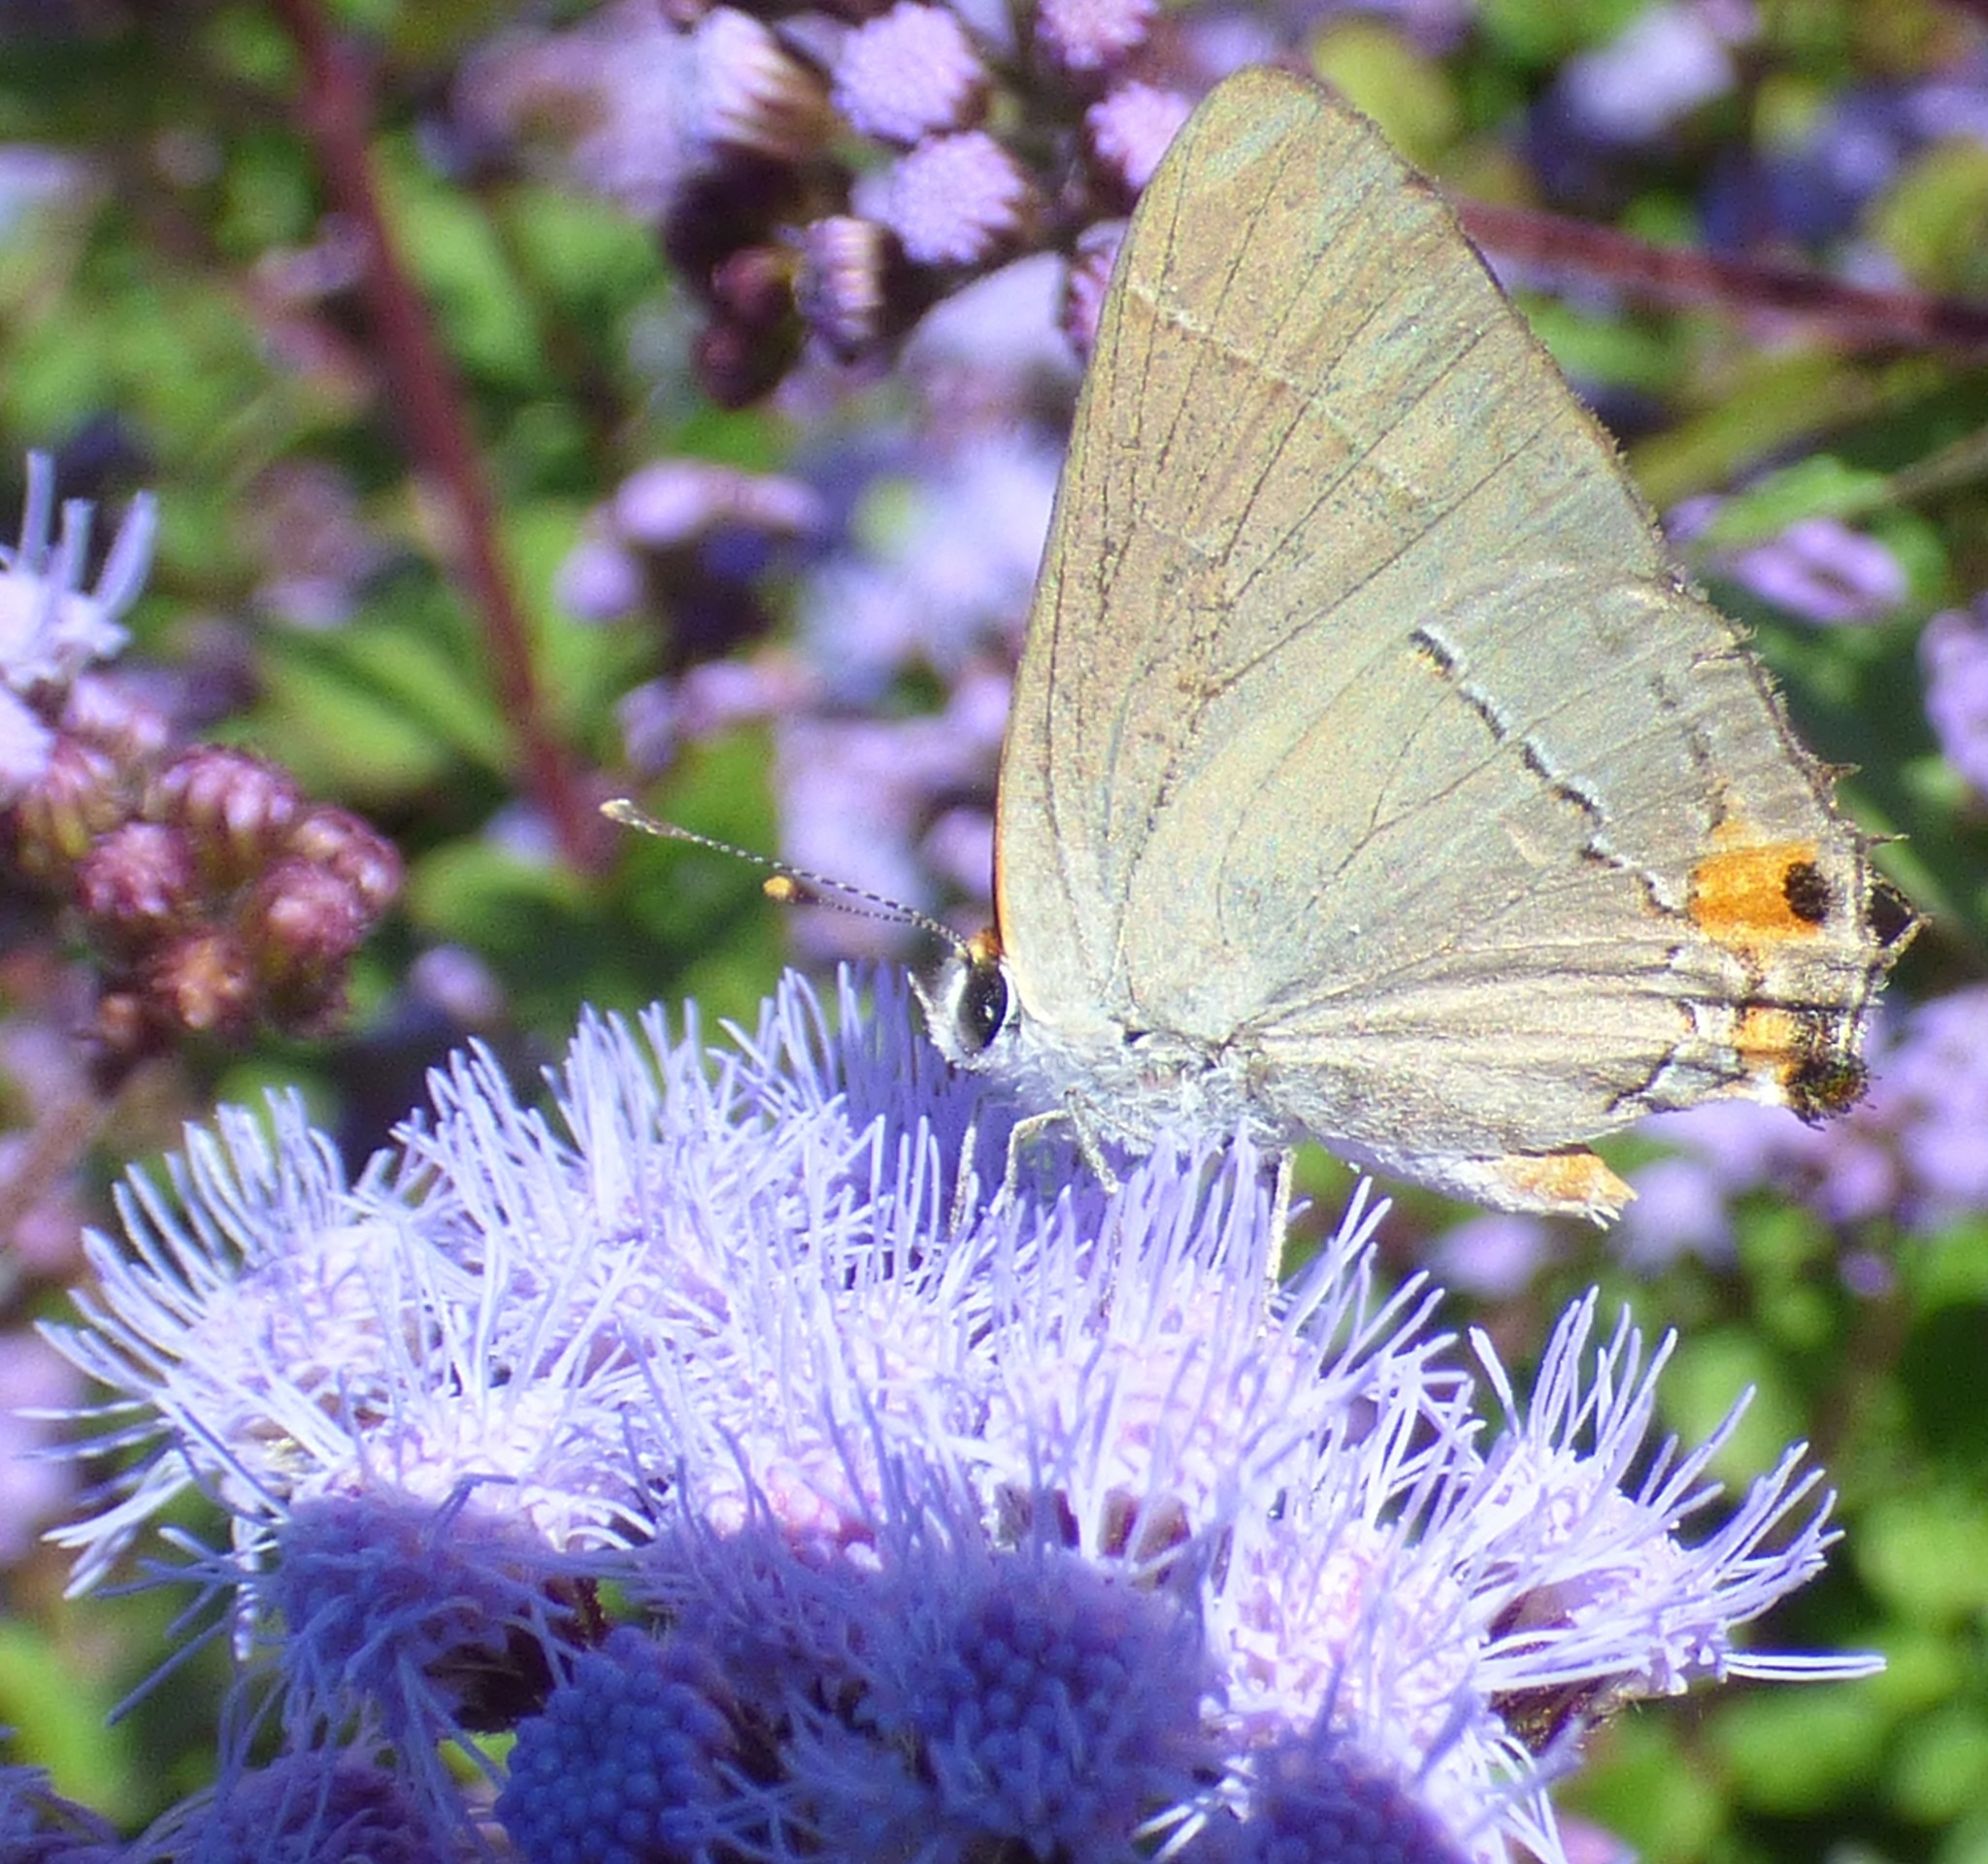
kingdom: Animalia
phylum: Arthropoda
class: Insecta
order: Lepidoptera
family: Lycaenidae
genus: Strymon
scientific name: Strymon melinus
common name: Gray hairstreak
